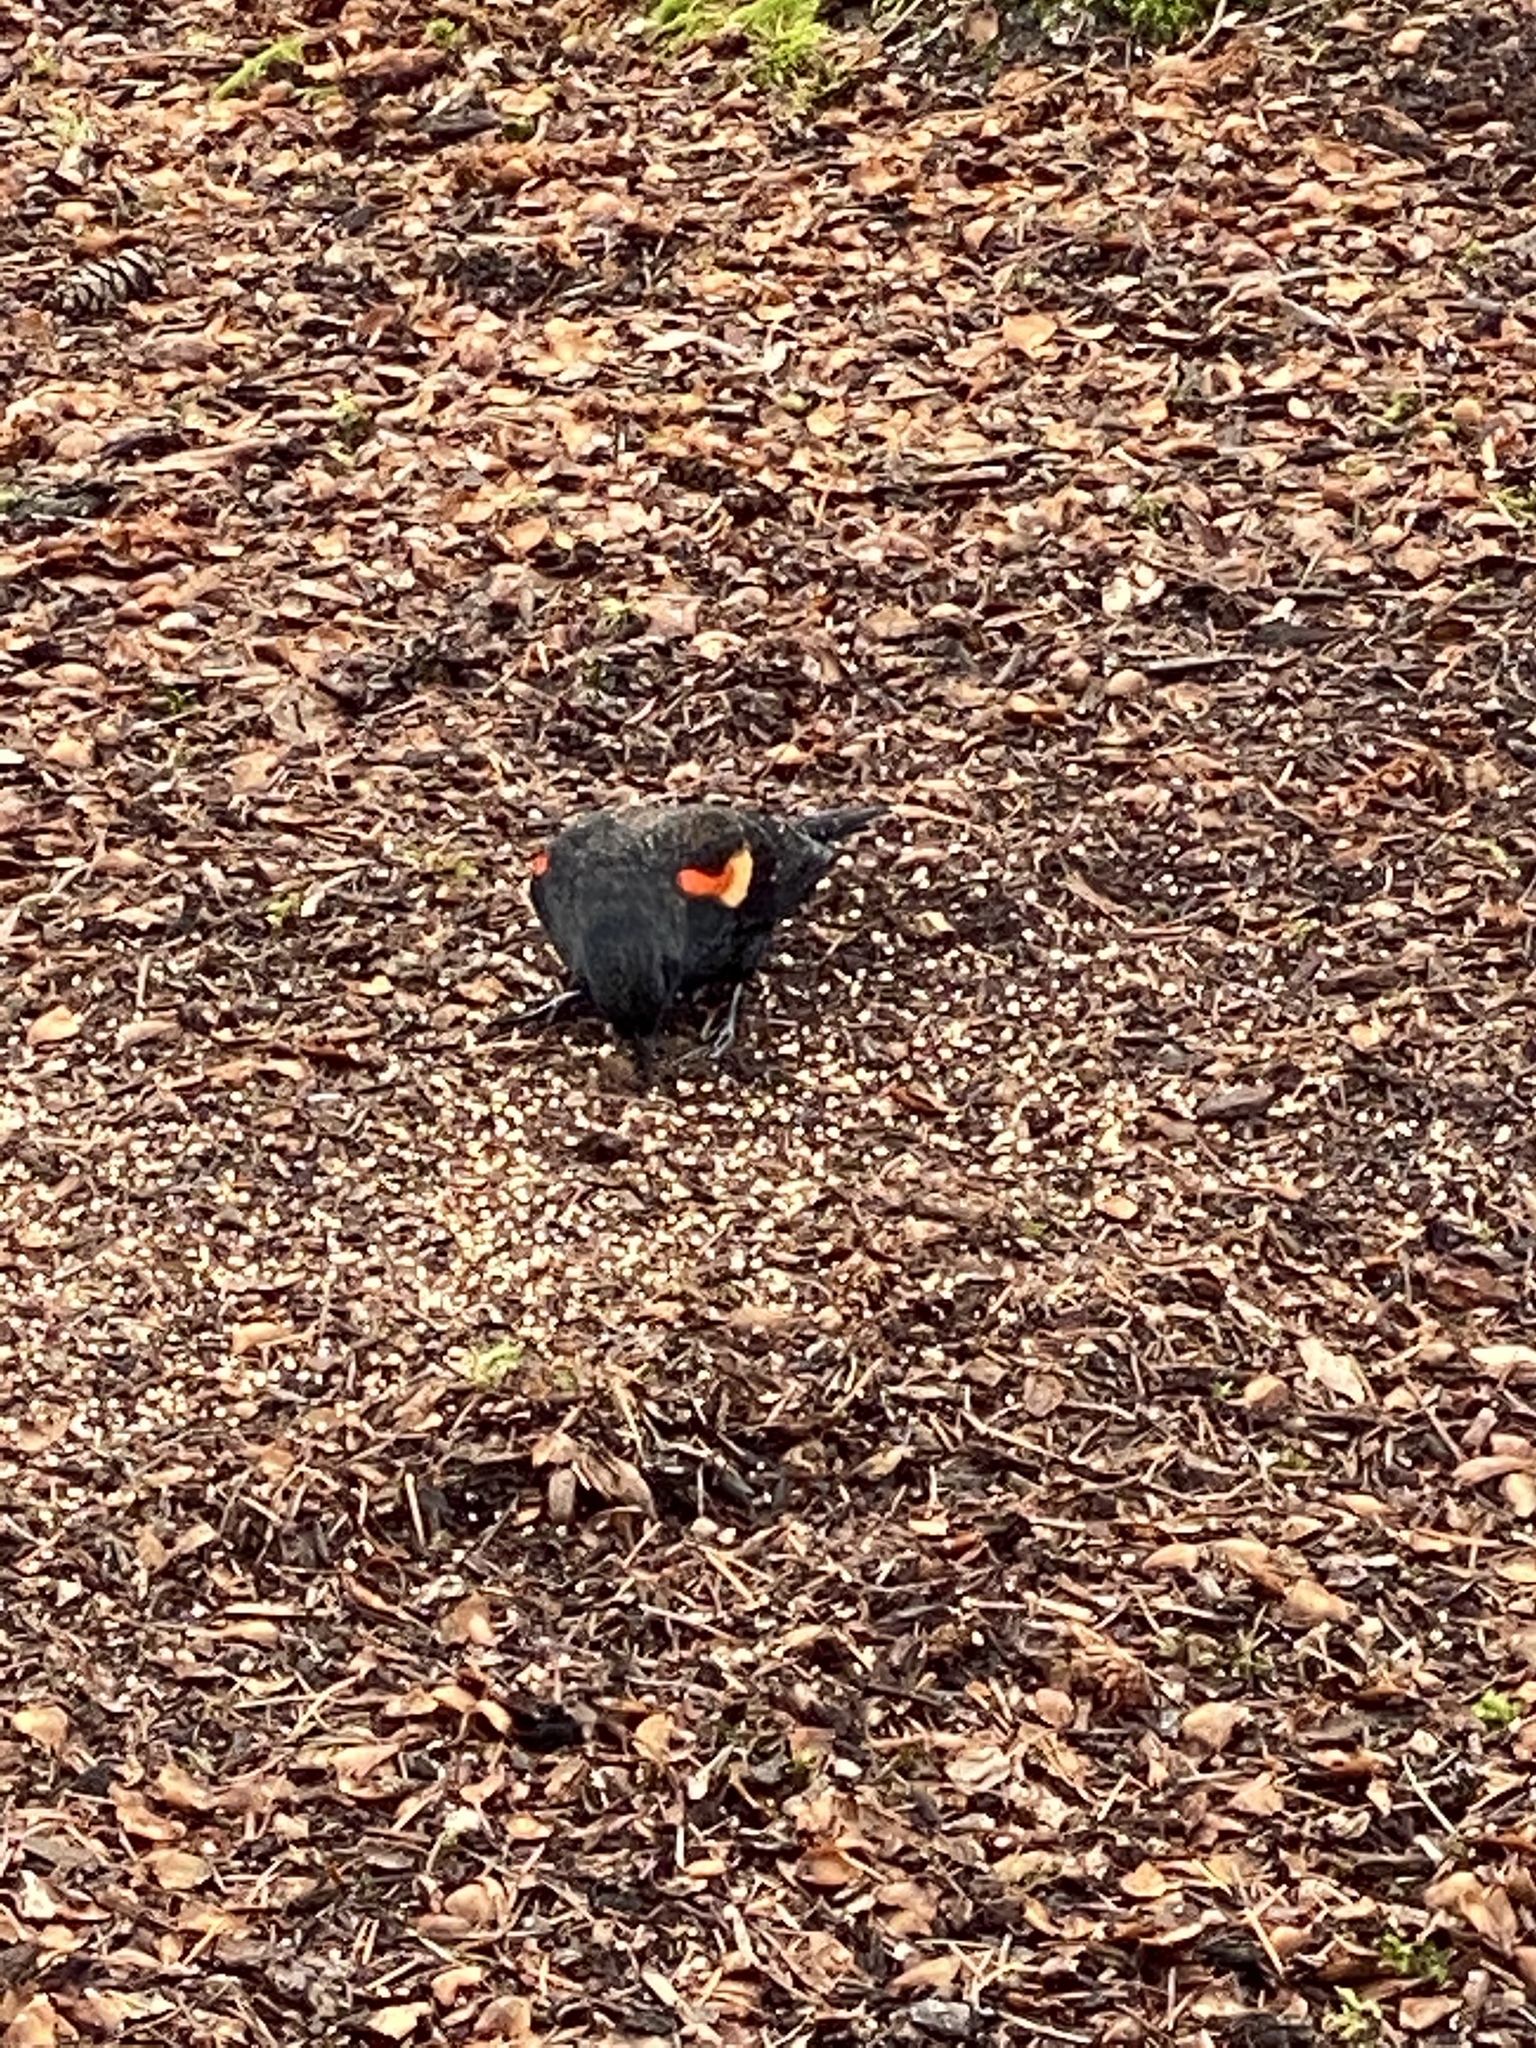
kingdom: Animalia
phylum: Chordata
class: Aves
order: Passeriformes
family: Icteridae
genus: Agelaius
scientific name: Agelaius phoeniceus
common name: Red-winged blackbird
